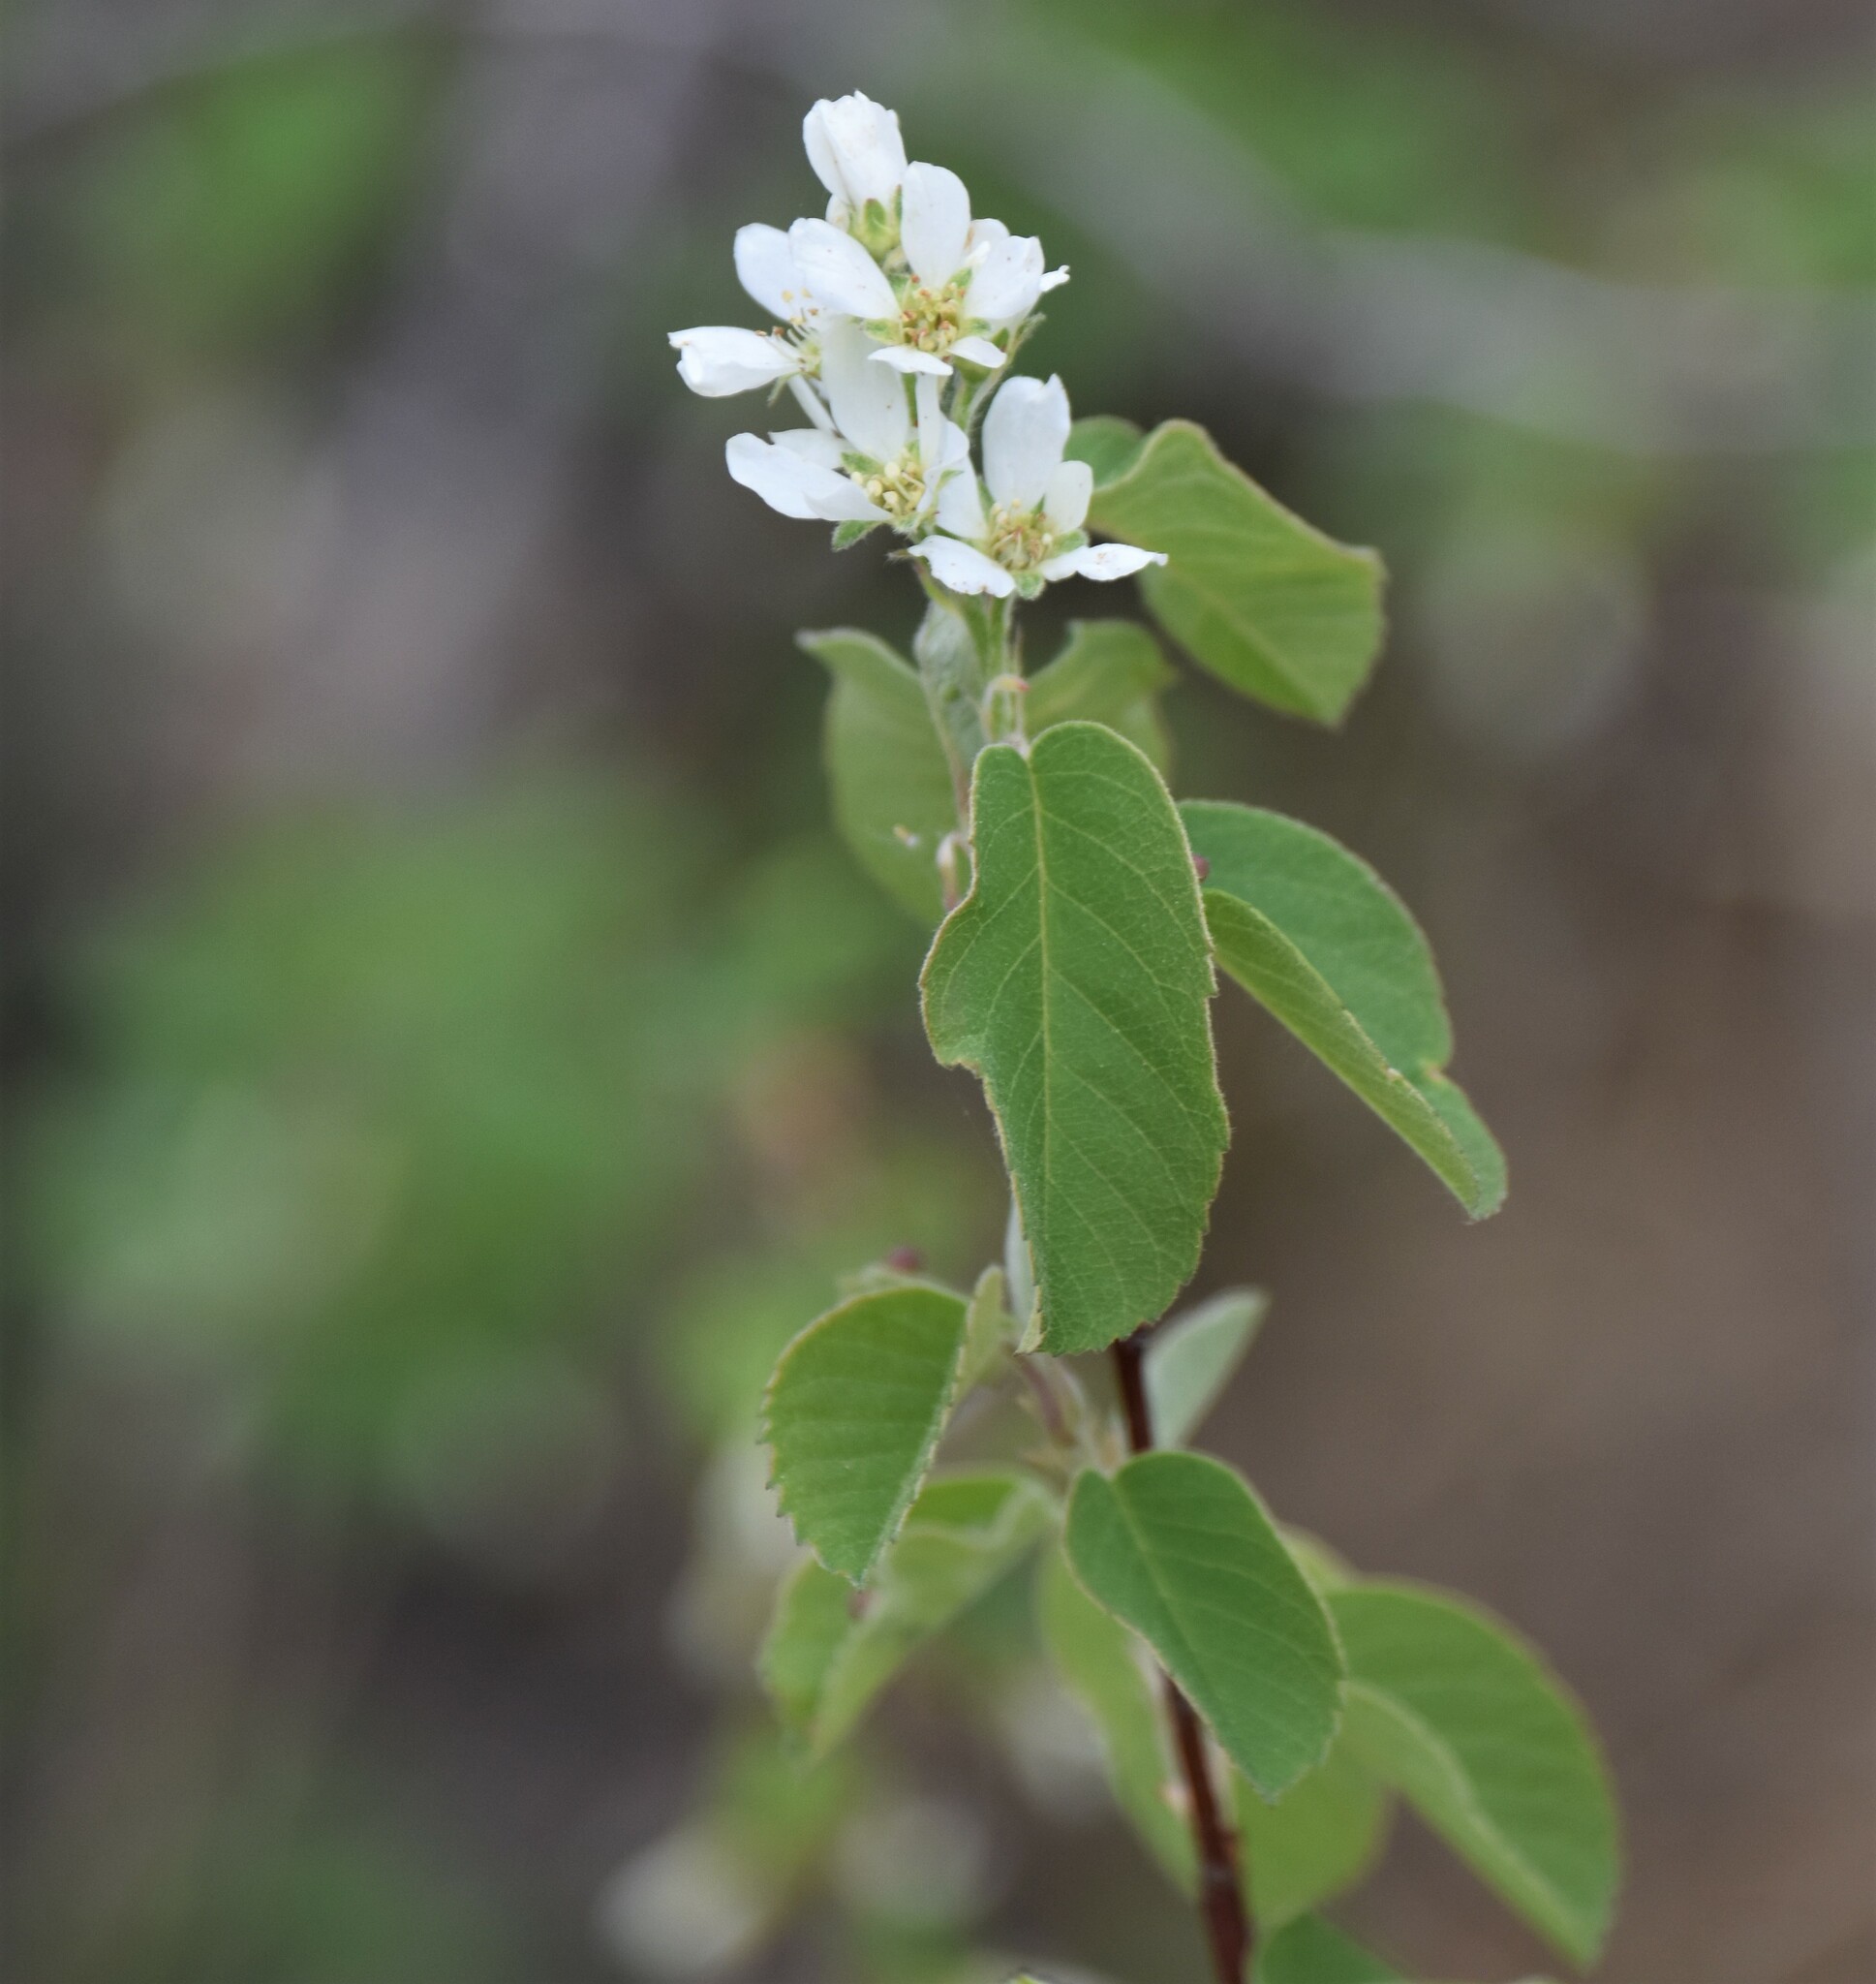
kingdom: Plantae
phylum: Tracheophyta
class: Magnoliopsida
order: Rosales
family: Rosaceae
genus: Amelanchier
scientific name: Amelanchier alnifolia
